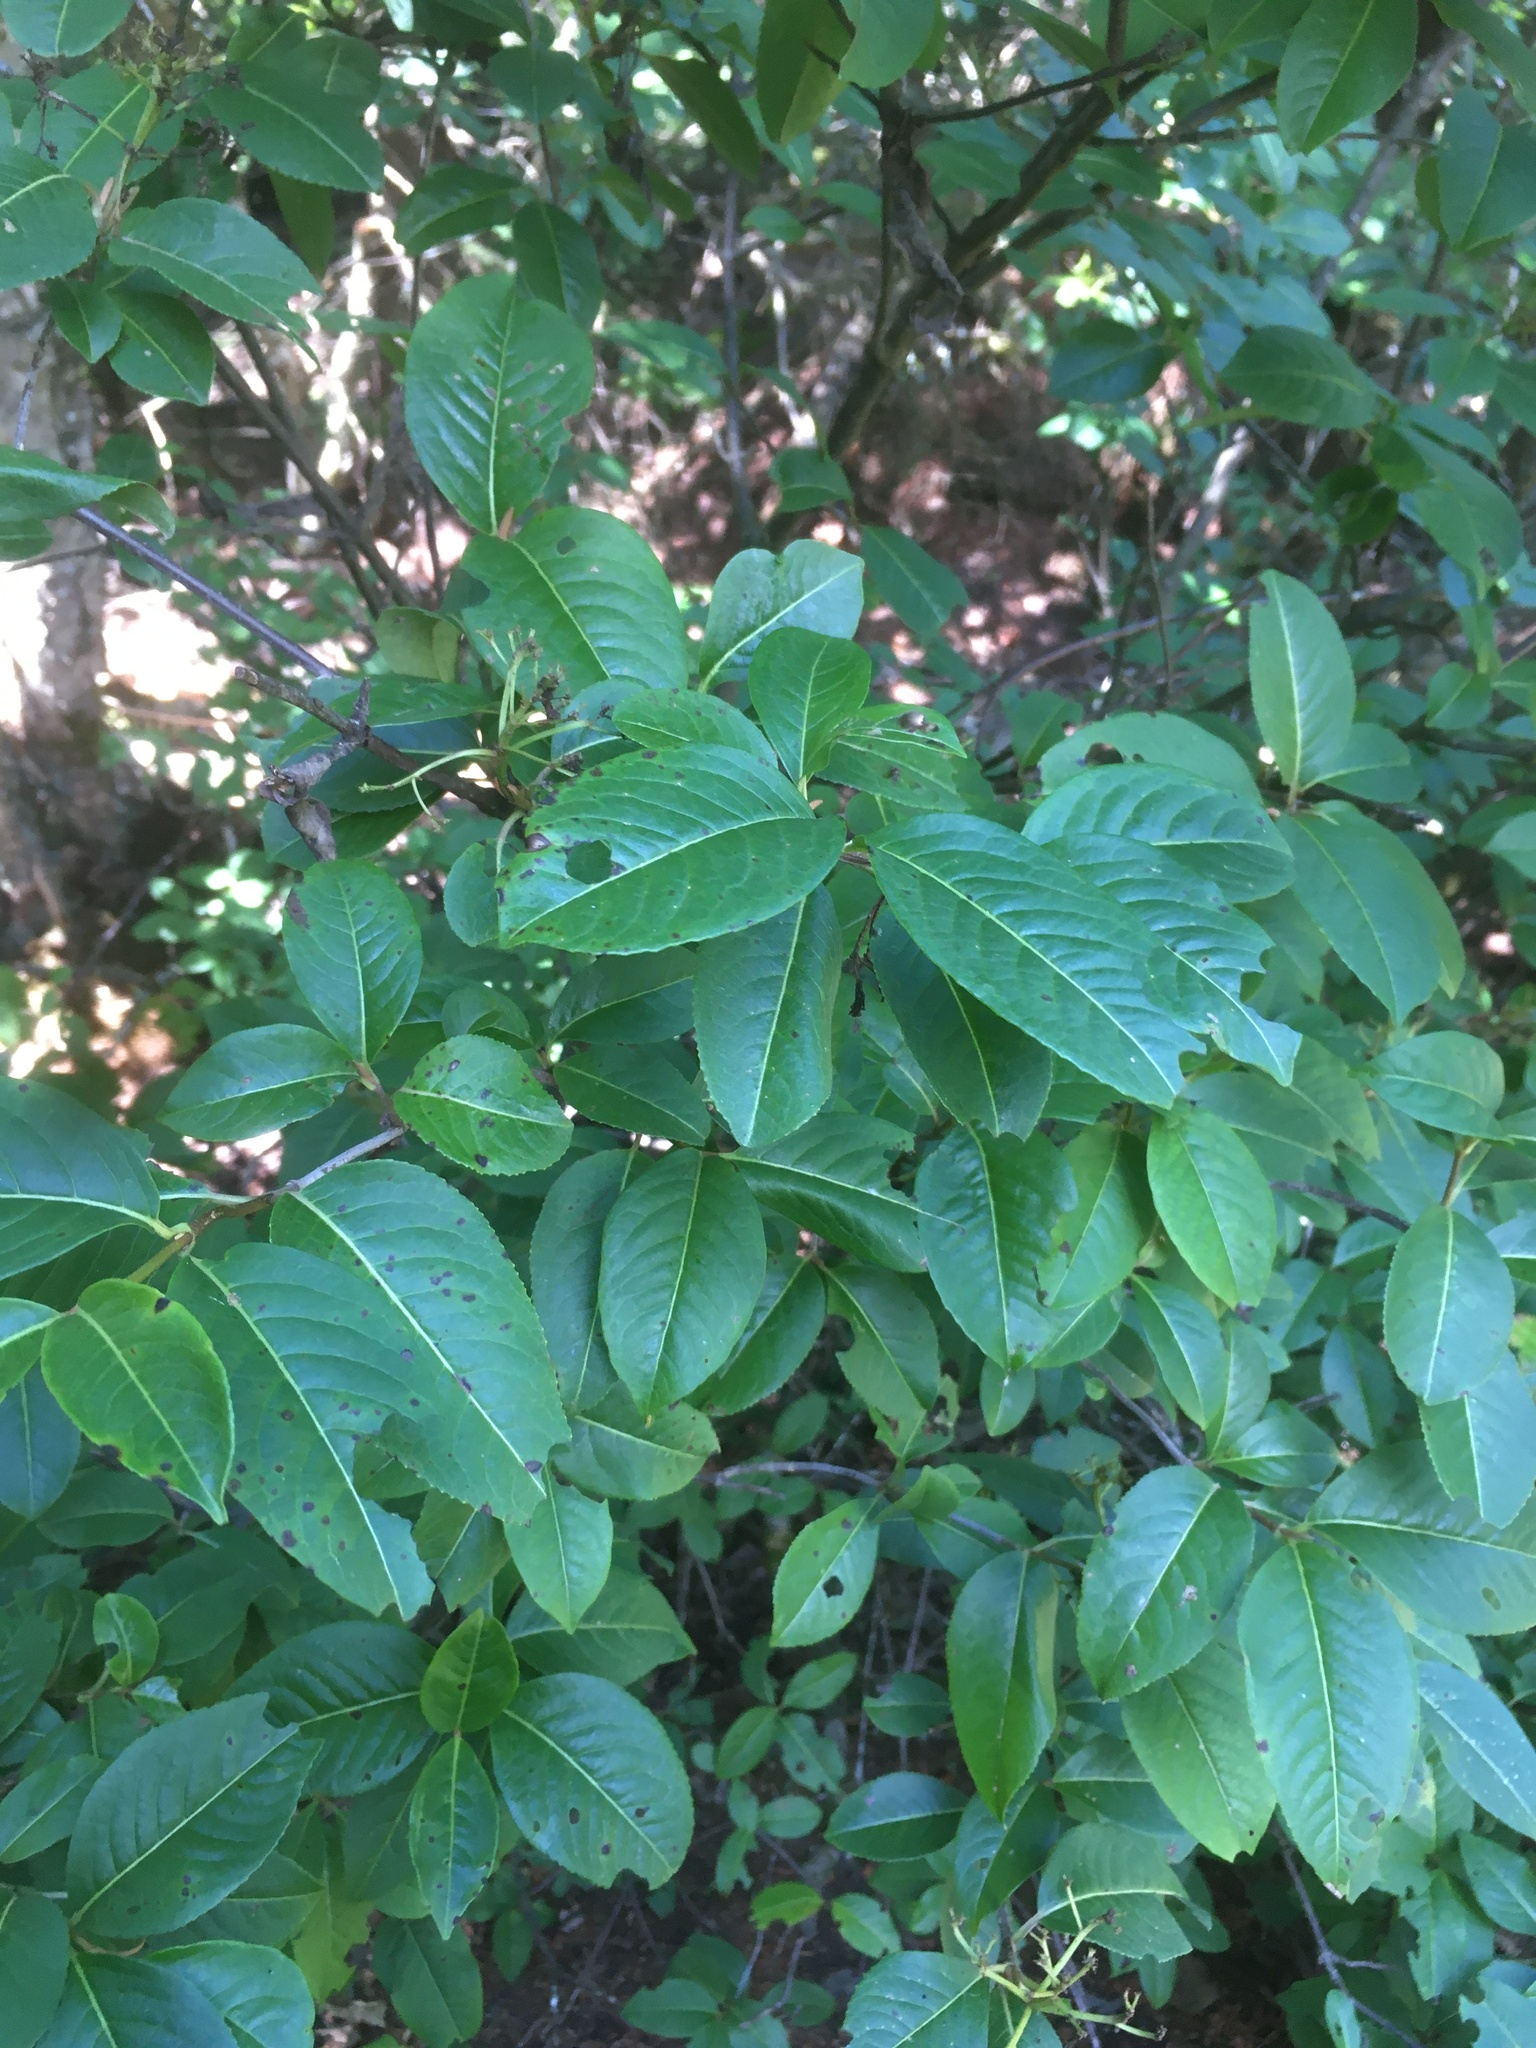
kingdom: Plantae
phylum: Tracheophyta
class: Magnoliopsida
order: Dipsacales
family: Viburnaceae
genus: Viburnum
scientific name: Viburnum cassinoides
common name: Swamp haw
